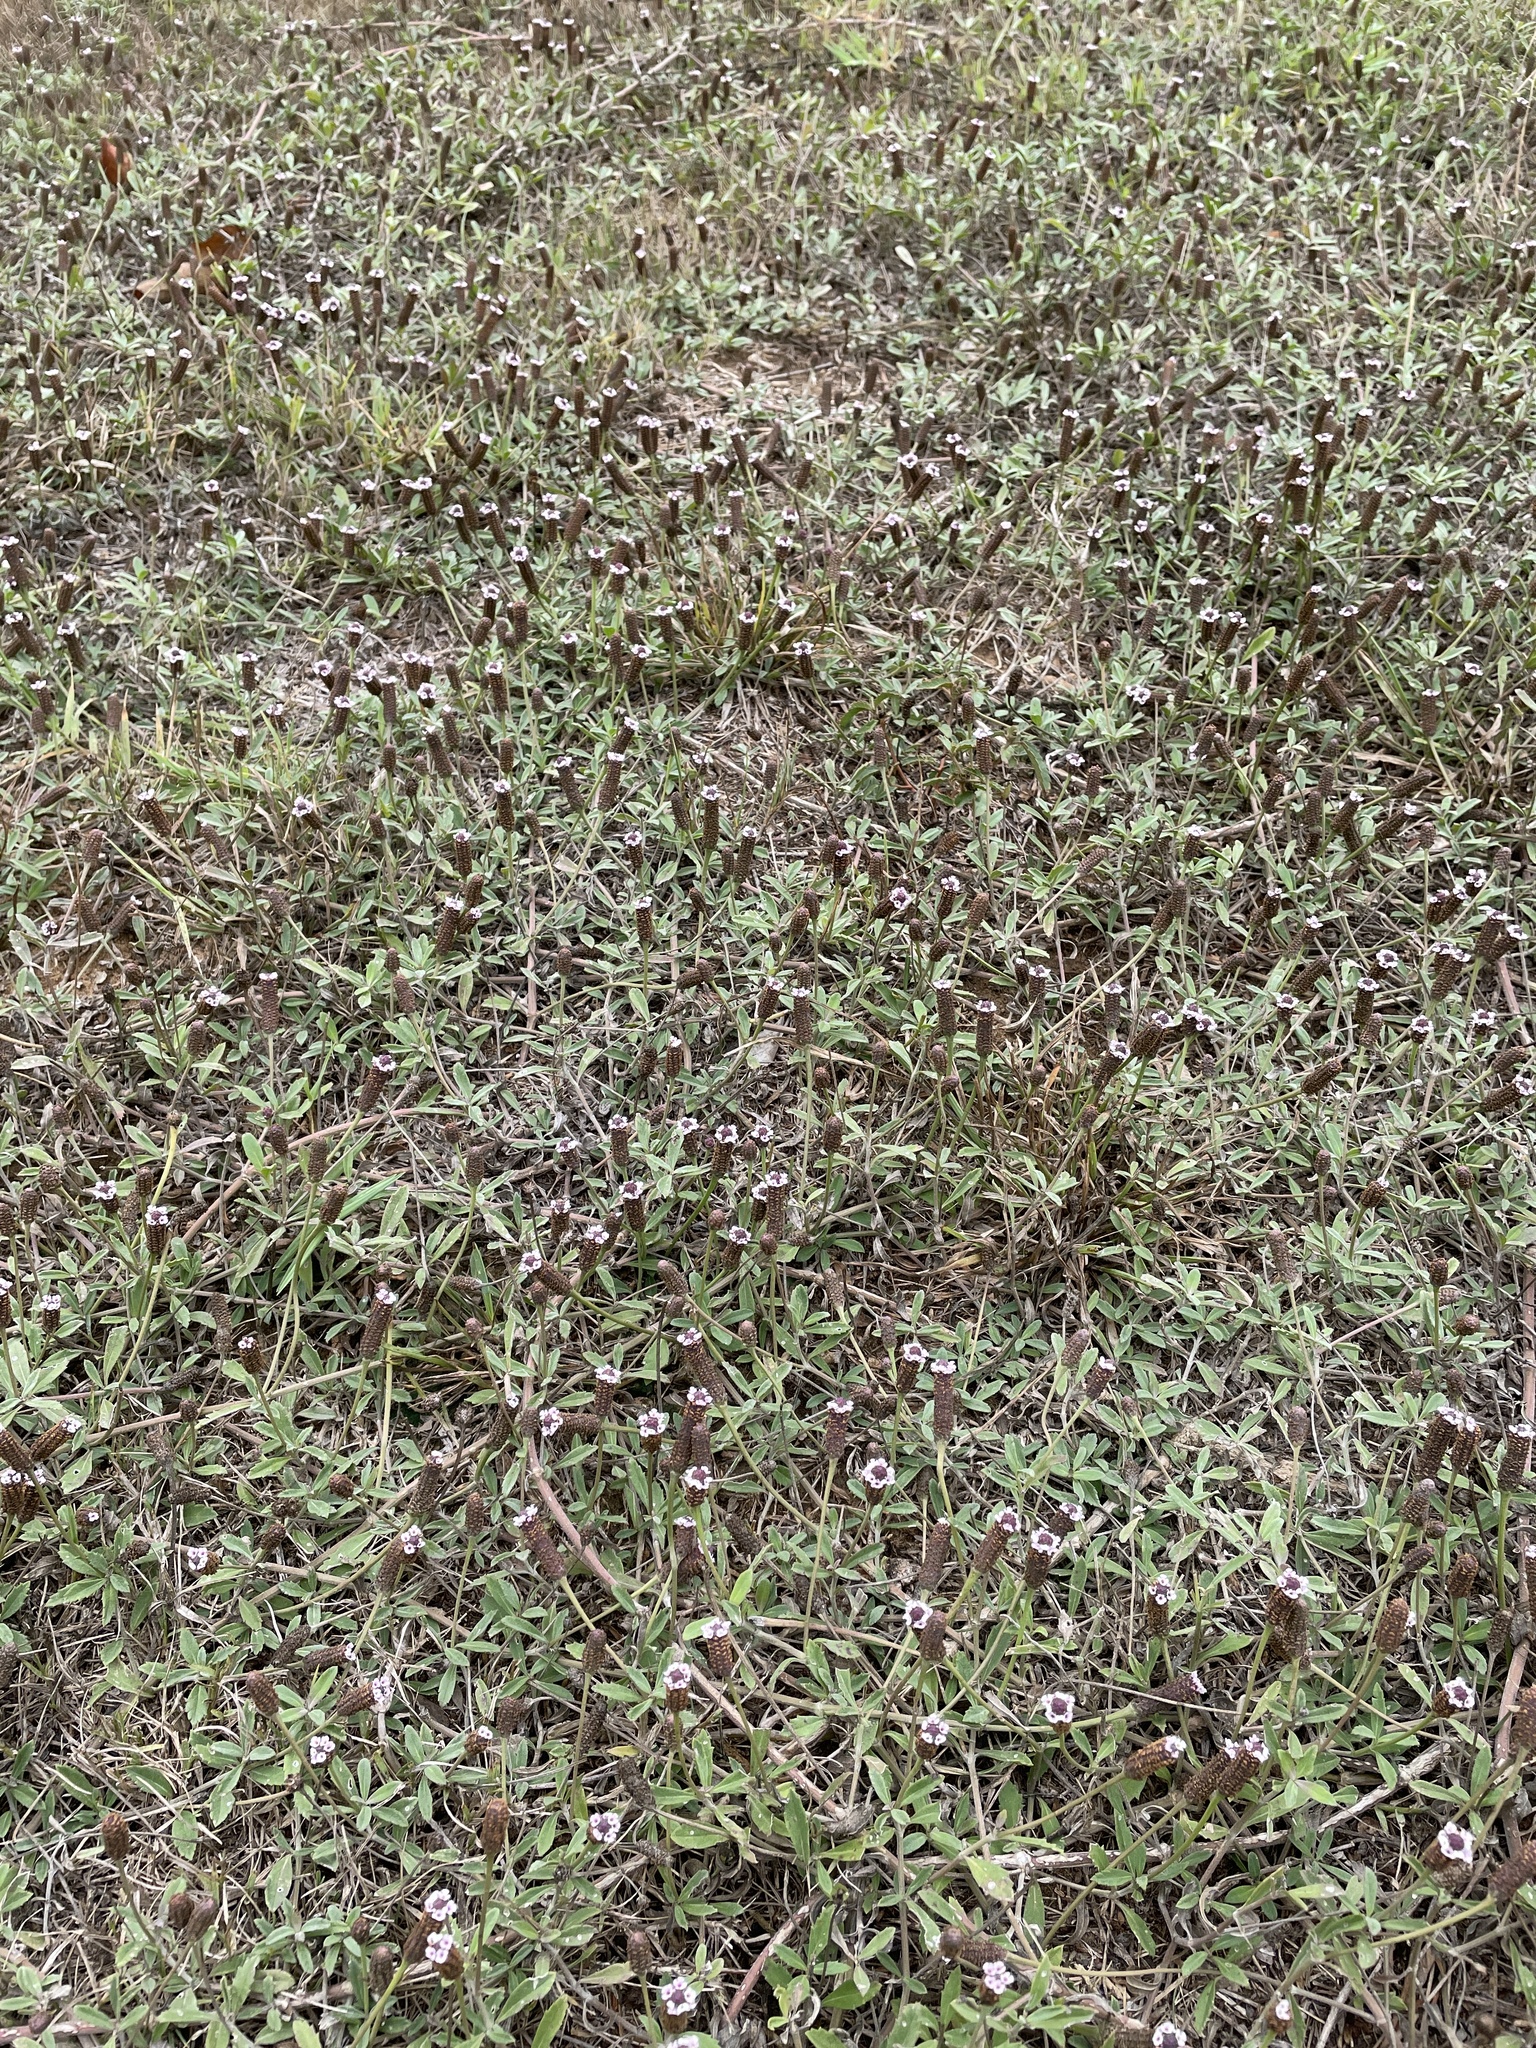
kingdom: Plantae
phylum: Tracheophyta
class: Magnoliopsida
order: Lamiales
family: Verbenaceae
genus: Phyla
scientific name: Phyla nodiflora
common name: Frogfruit
